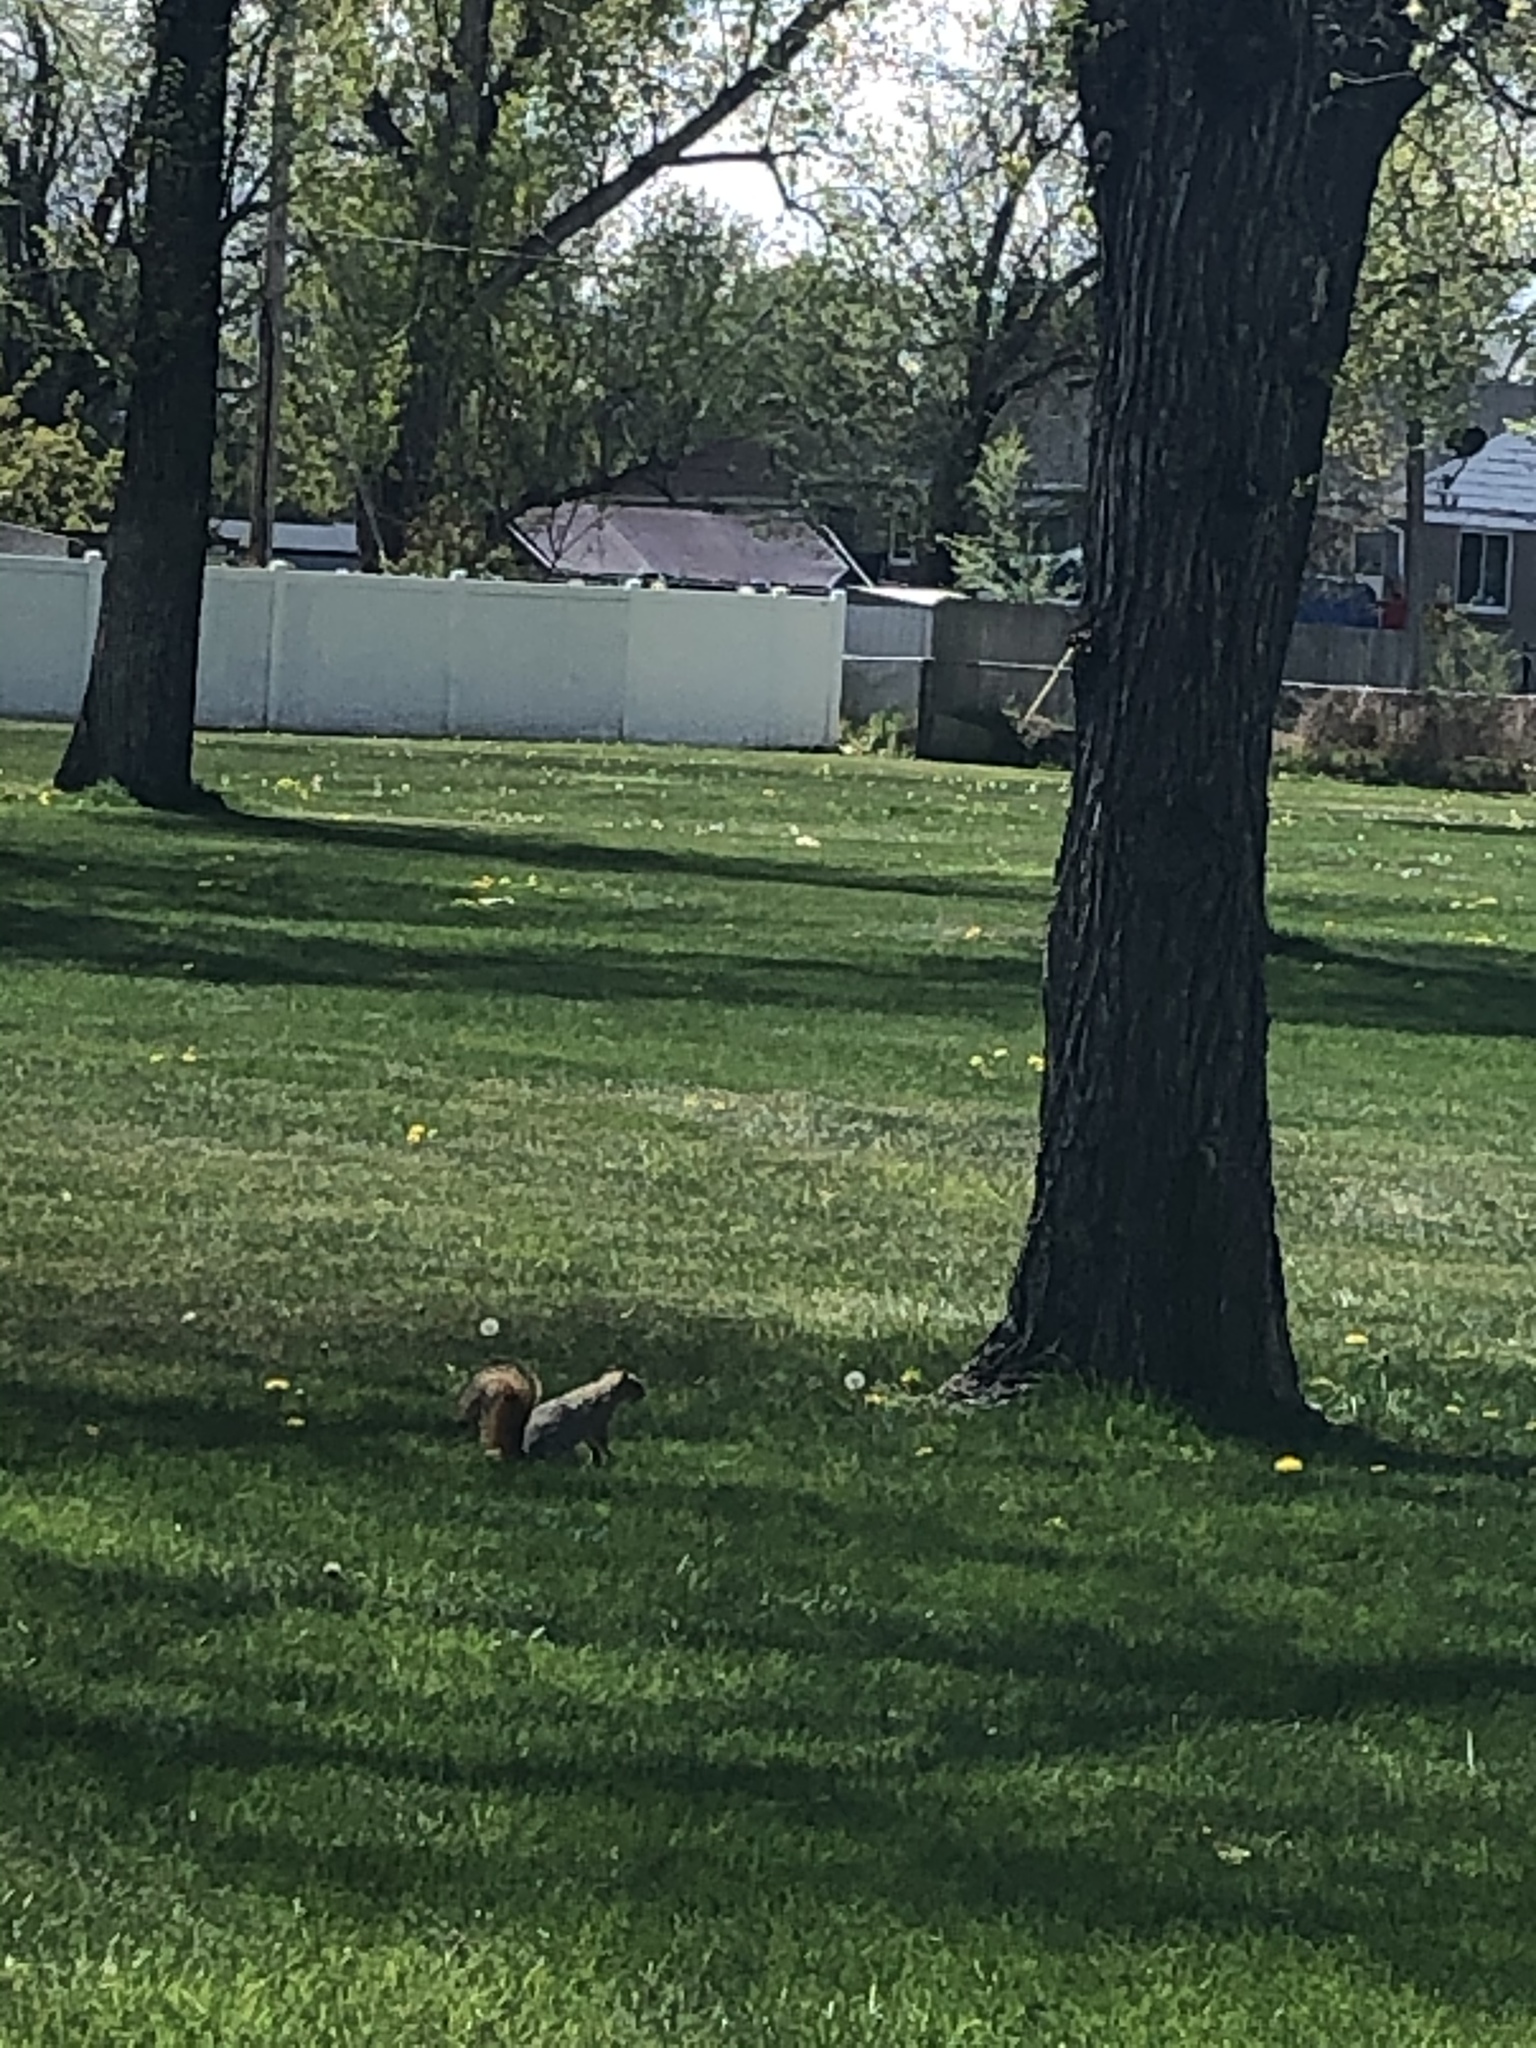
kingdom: Animalia
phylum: Chordata
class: Mammalia
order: Rodentia
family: Sciuridae
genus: Sciurus
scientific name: Sciurus niger
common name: Fox squirrel
